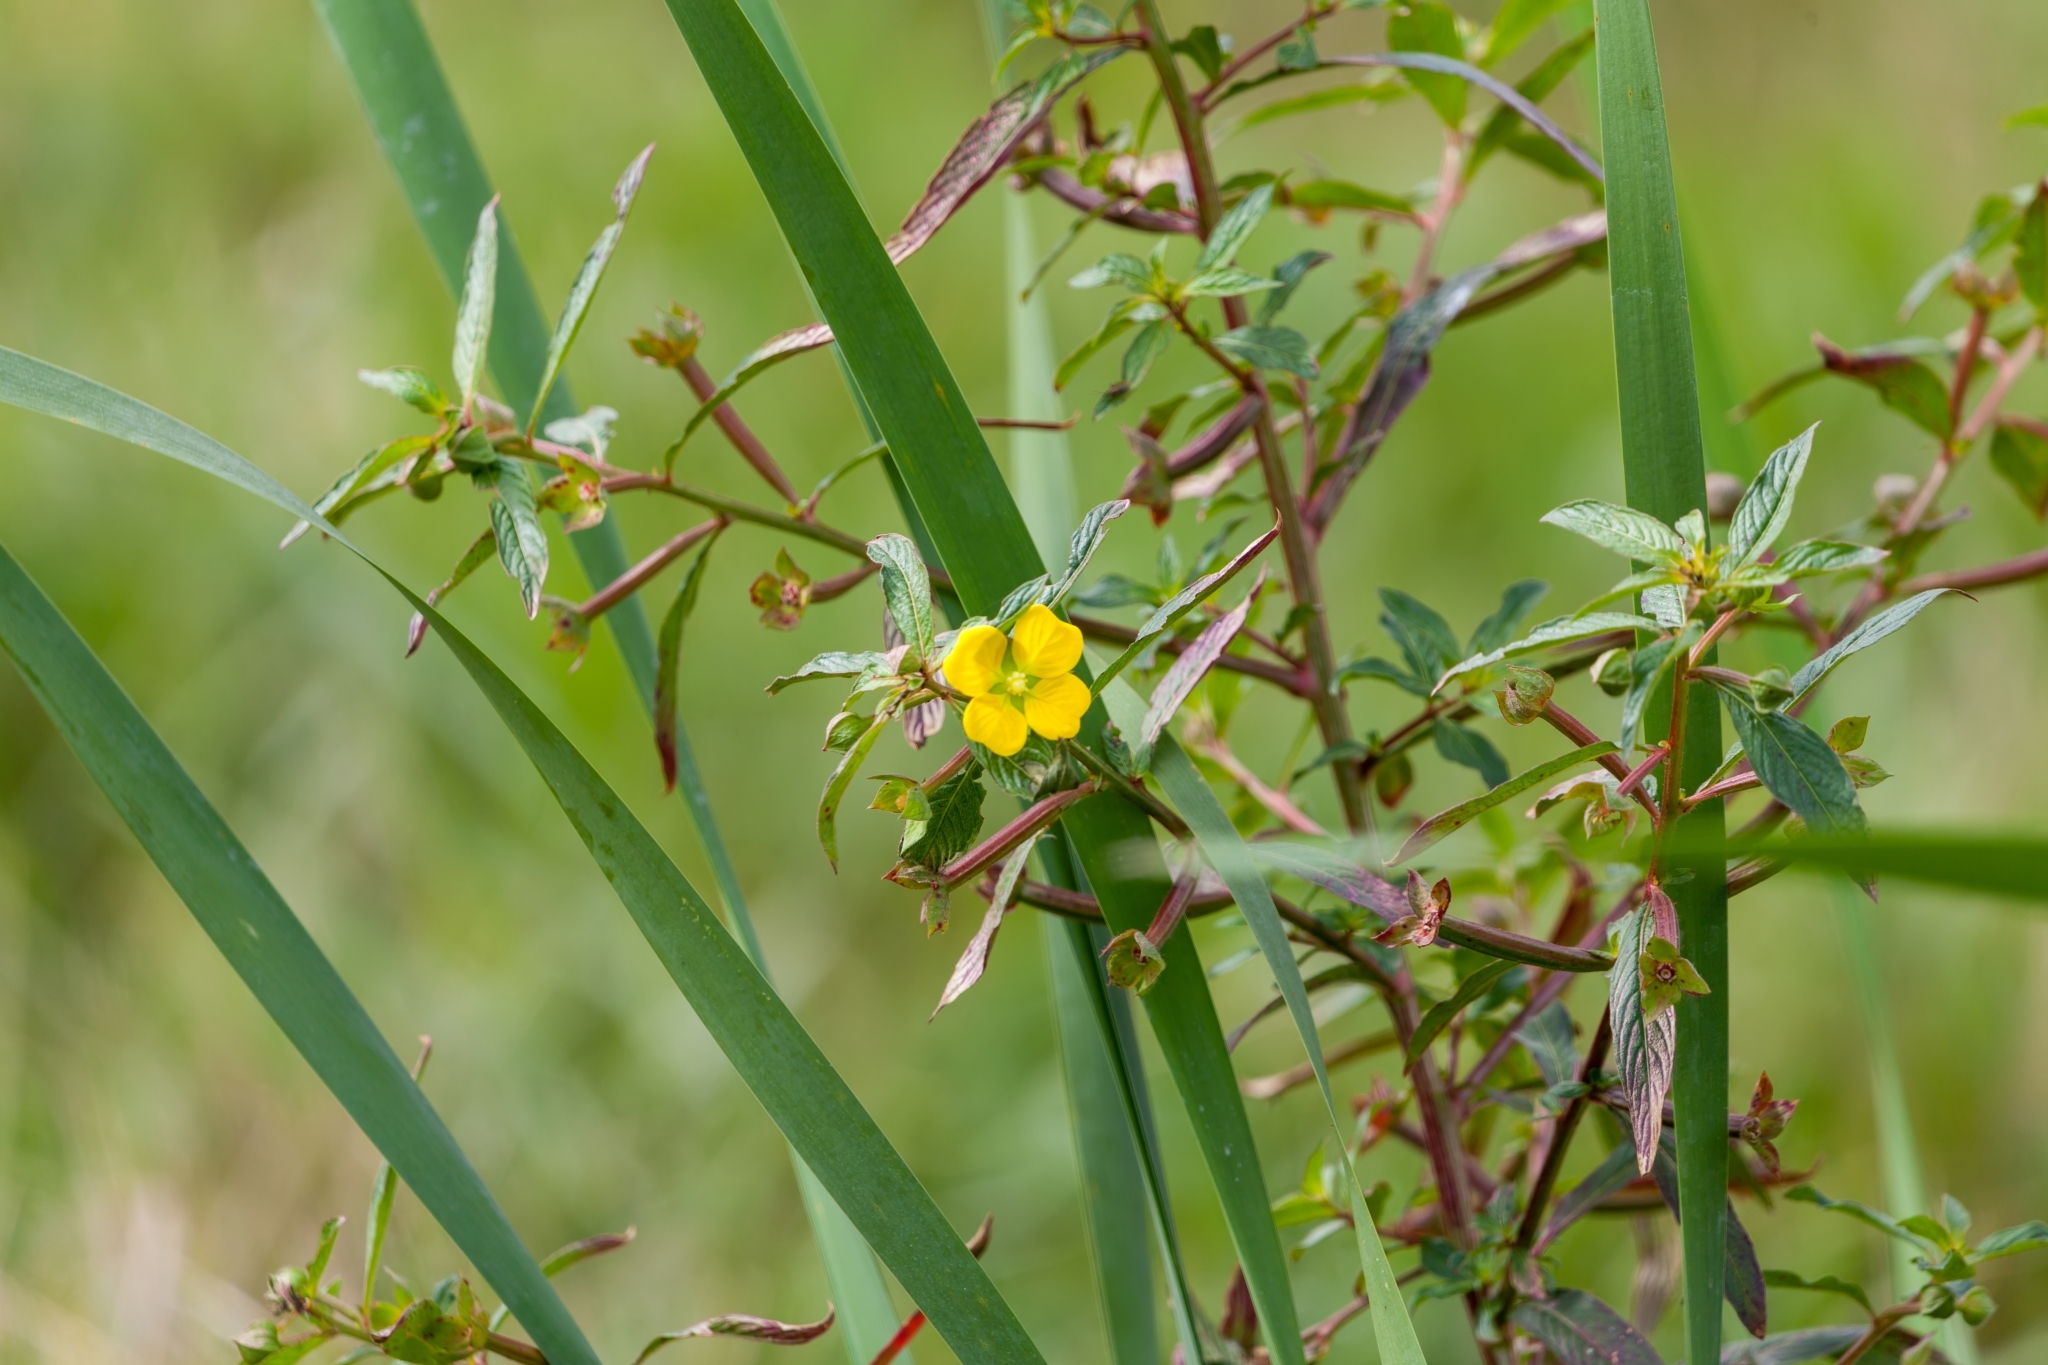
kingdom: Plantae
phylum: Tracheophyta
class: Magnoliopsida
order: Myrtales
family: Onagraceae
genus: Ludwigia
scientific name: Ludwigia octovalvis
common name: Water-primrose
